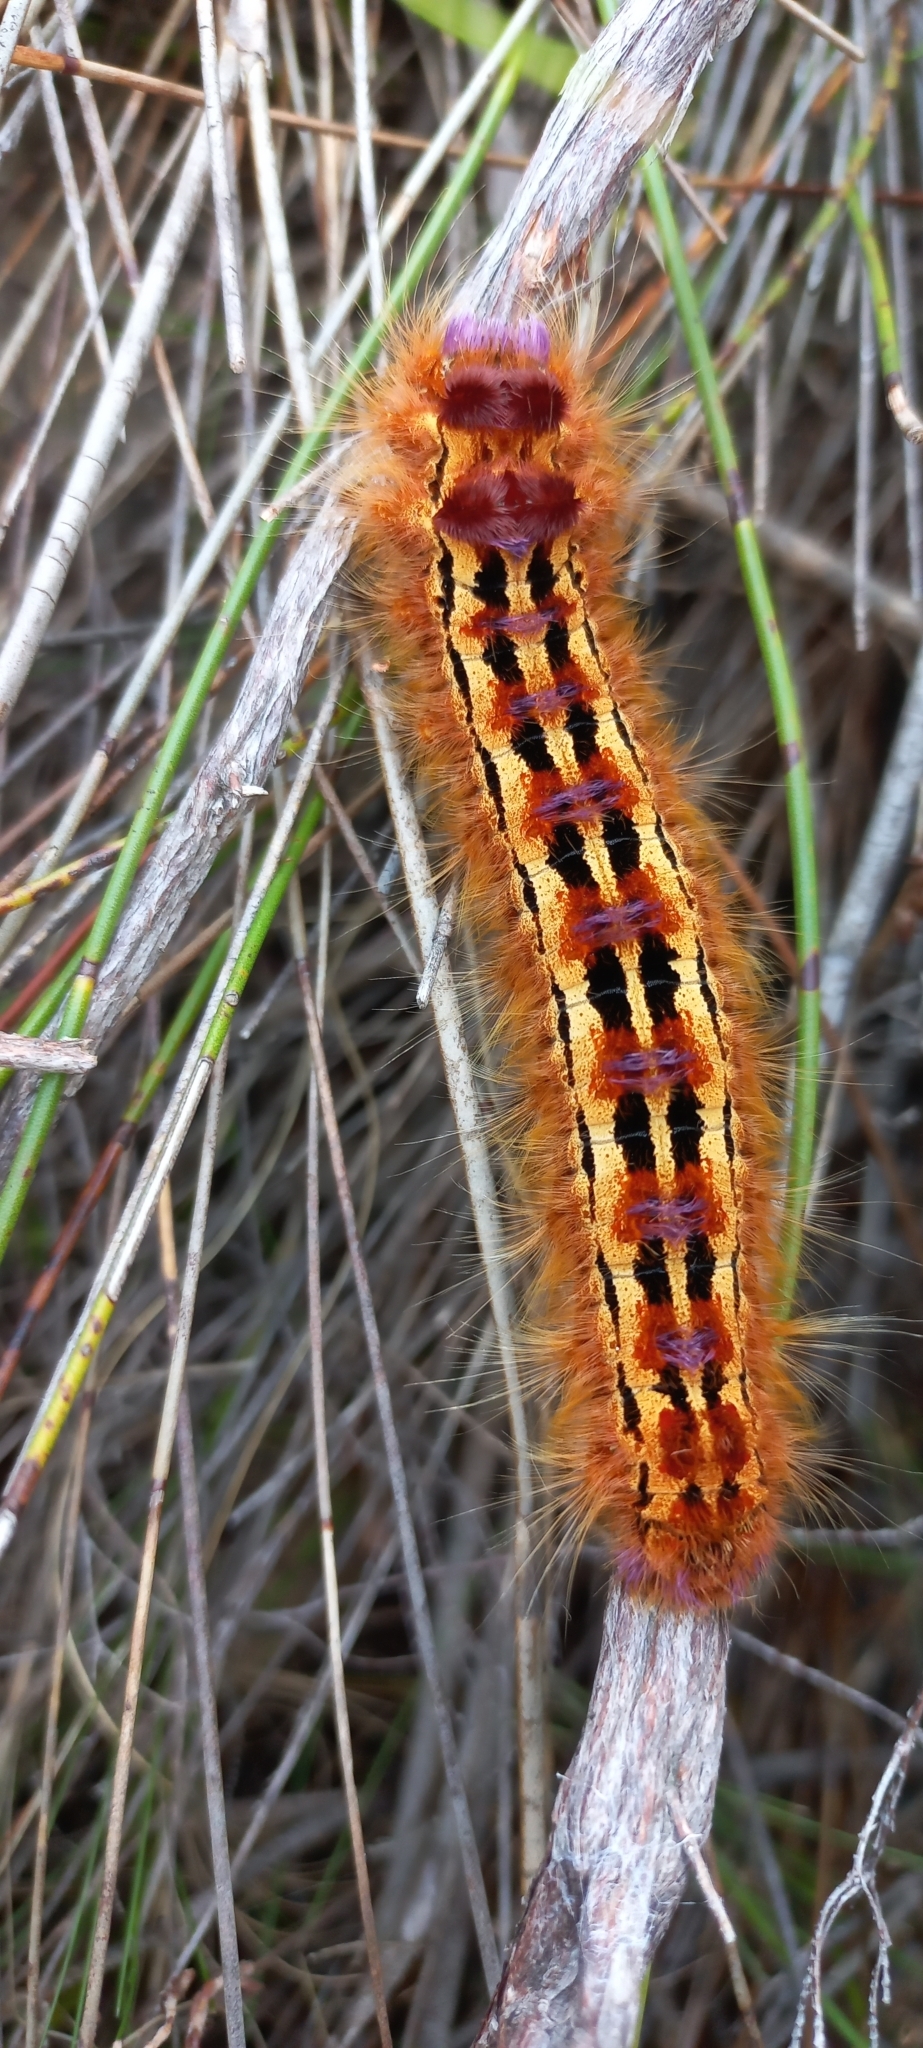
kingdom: Animalia
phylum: Arthropoda
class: Insecta
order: Lepidoptera
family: Lasiocampidae
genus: Eutricha
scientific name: Eutricha bifascia
